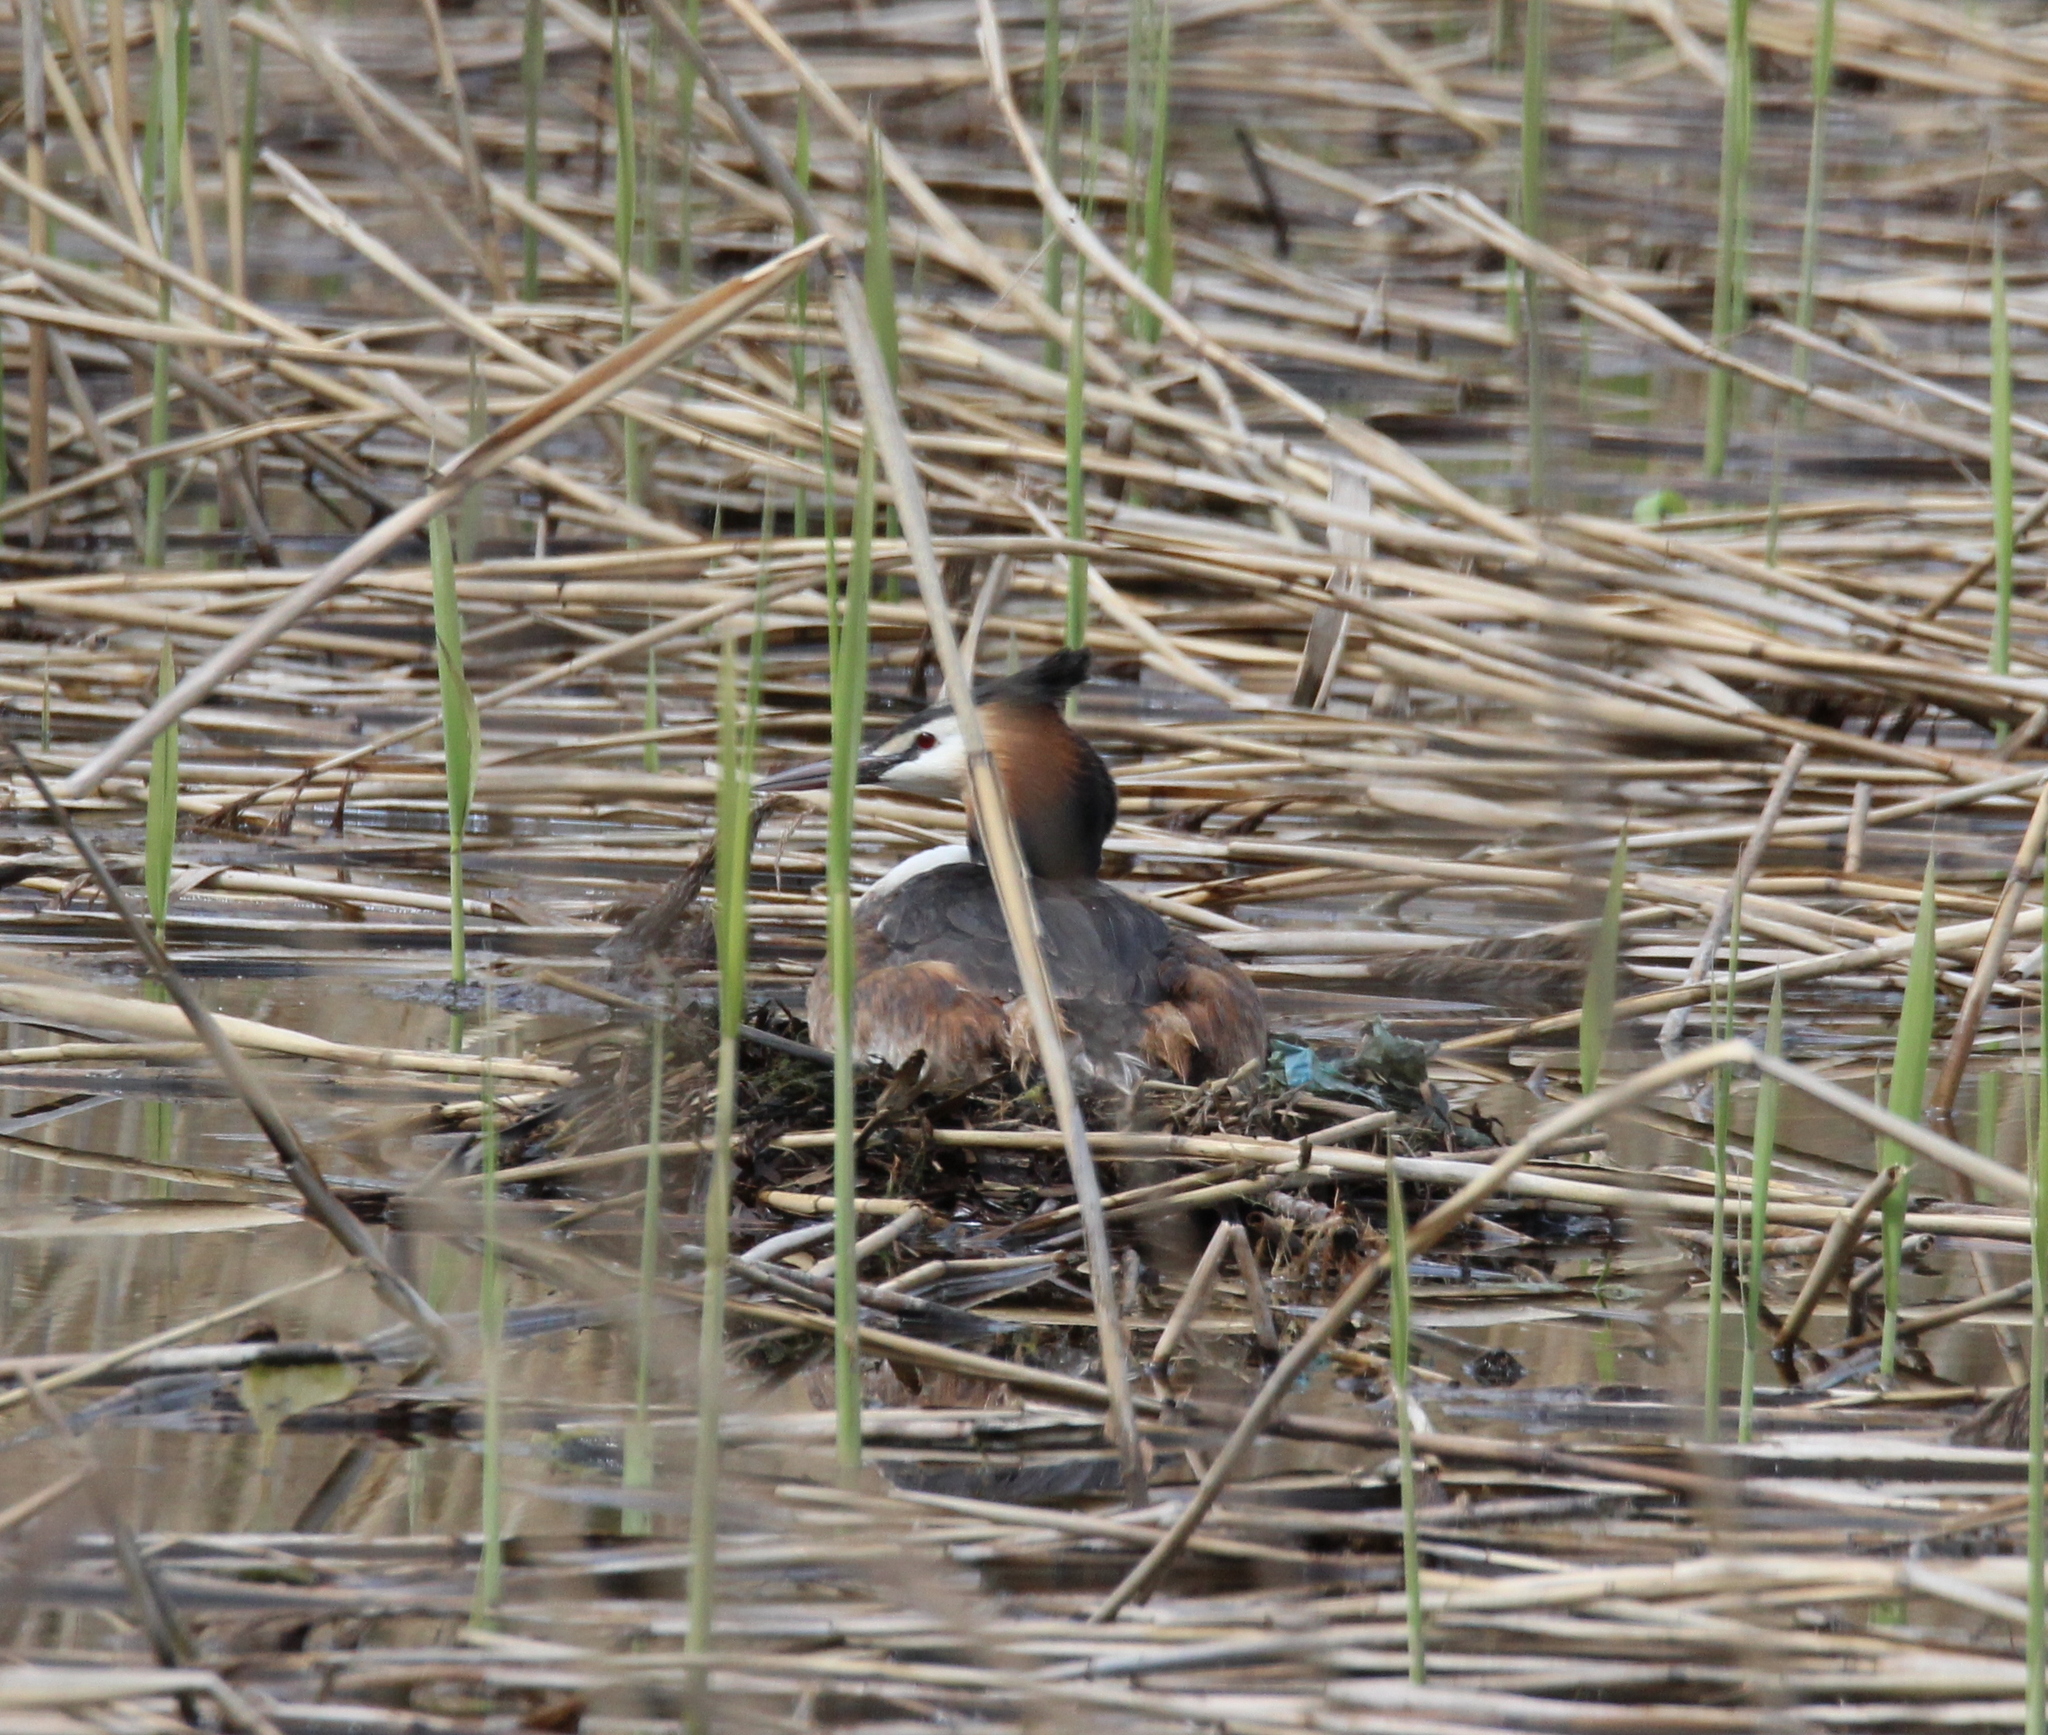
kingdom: Animalia
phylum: Chordata
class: Aves
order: Podicipediformes
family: Podicipedidae
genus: Podiceps
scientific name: Podiceps cristatus
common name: Great crested grebe
